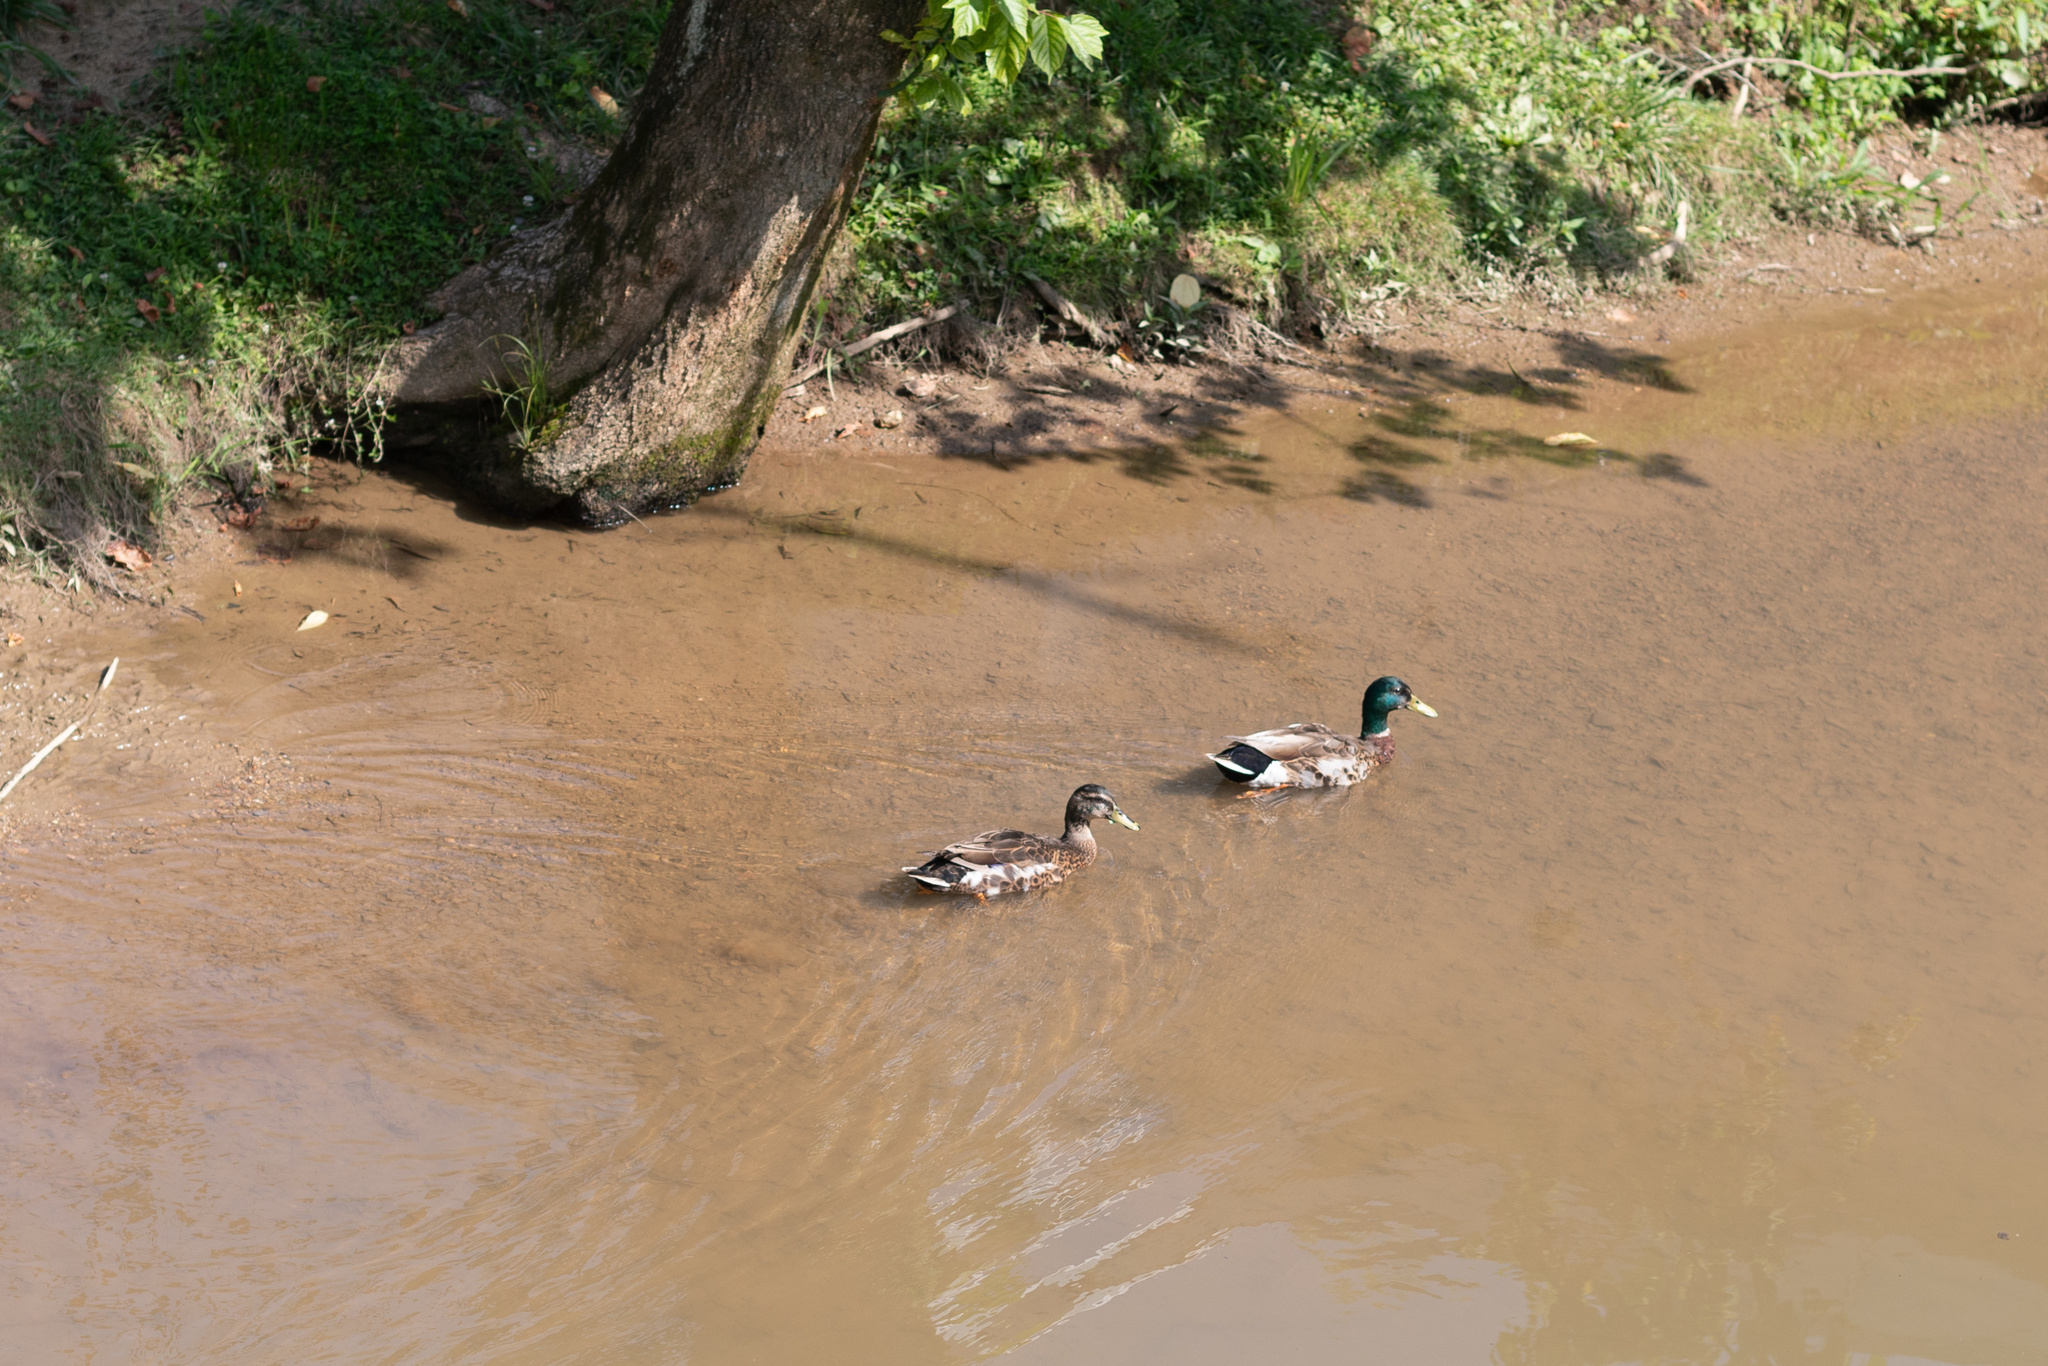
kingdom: Animalia
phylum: Chordata
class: Aves
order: Anseriformes
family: Anatidae
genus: Anas
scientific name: Anas platyrhynchos
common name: Mallard
